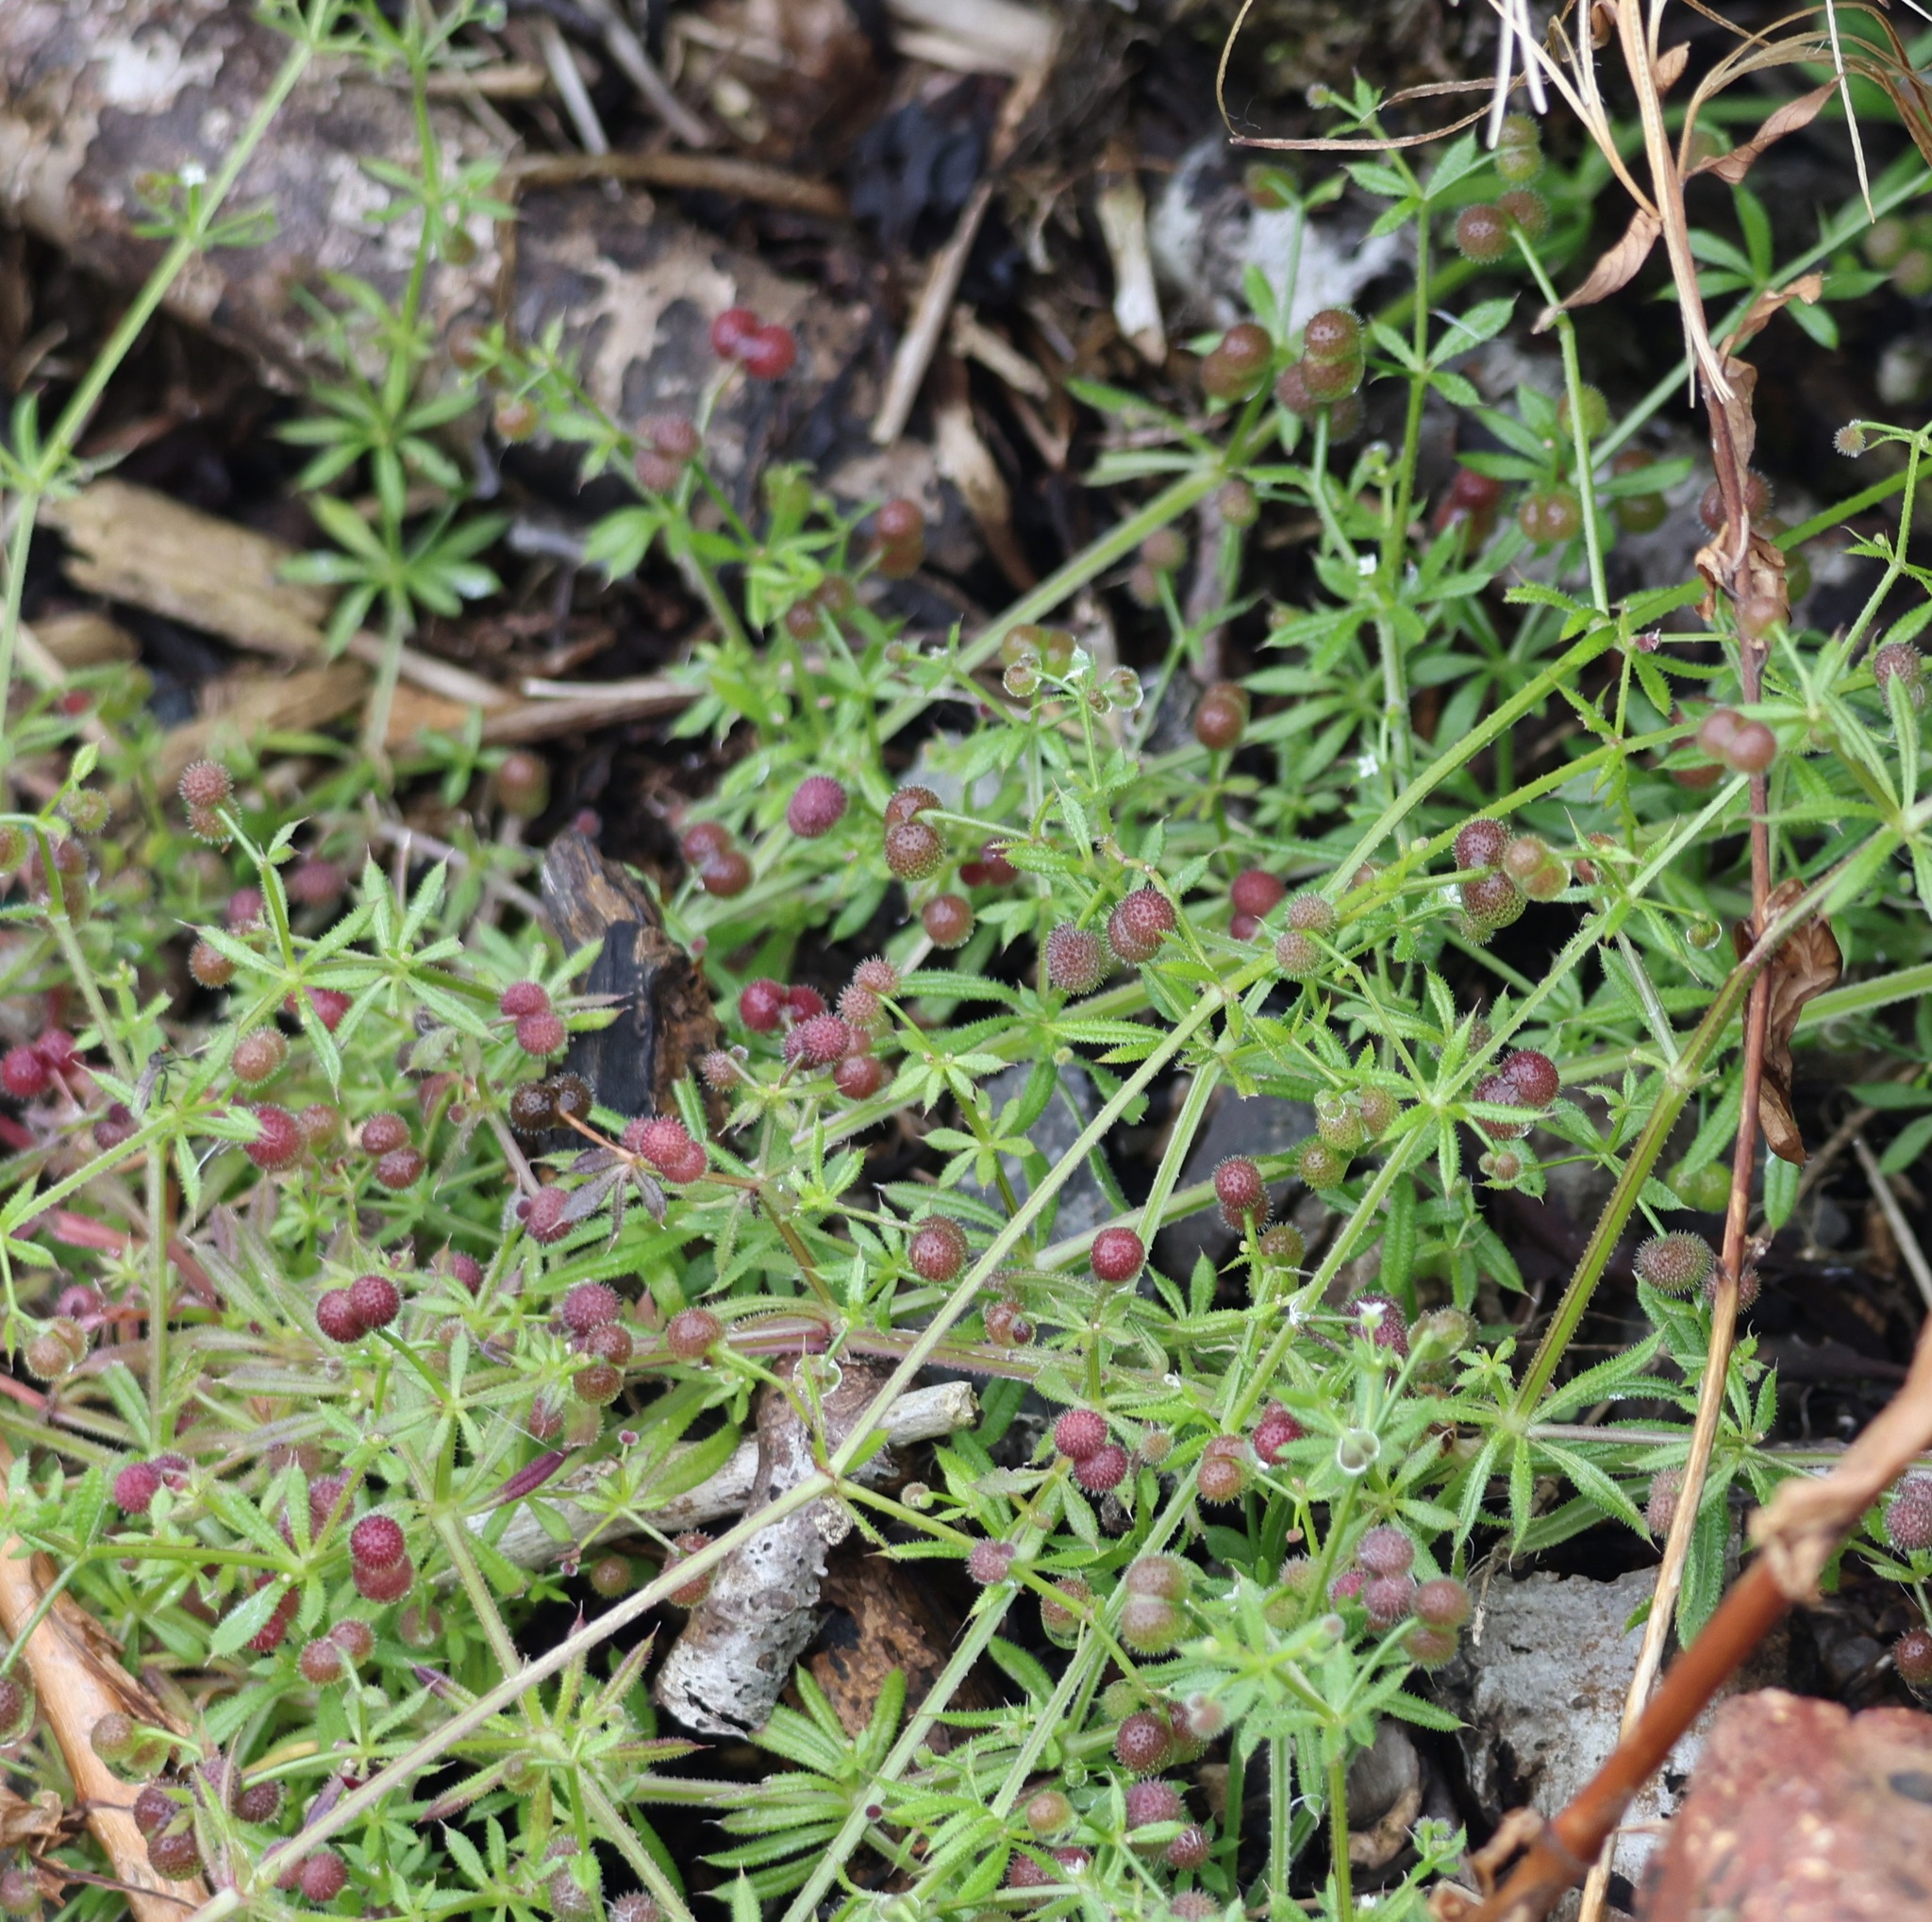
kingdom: Plantae
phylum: Tracheophyta
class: Magnoliopsida
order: Gentianales
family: Rubiaceae
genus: Galium
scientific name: Galium aparine
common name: Cleavers
